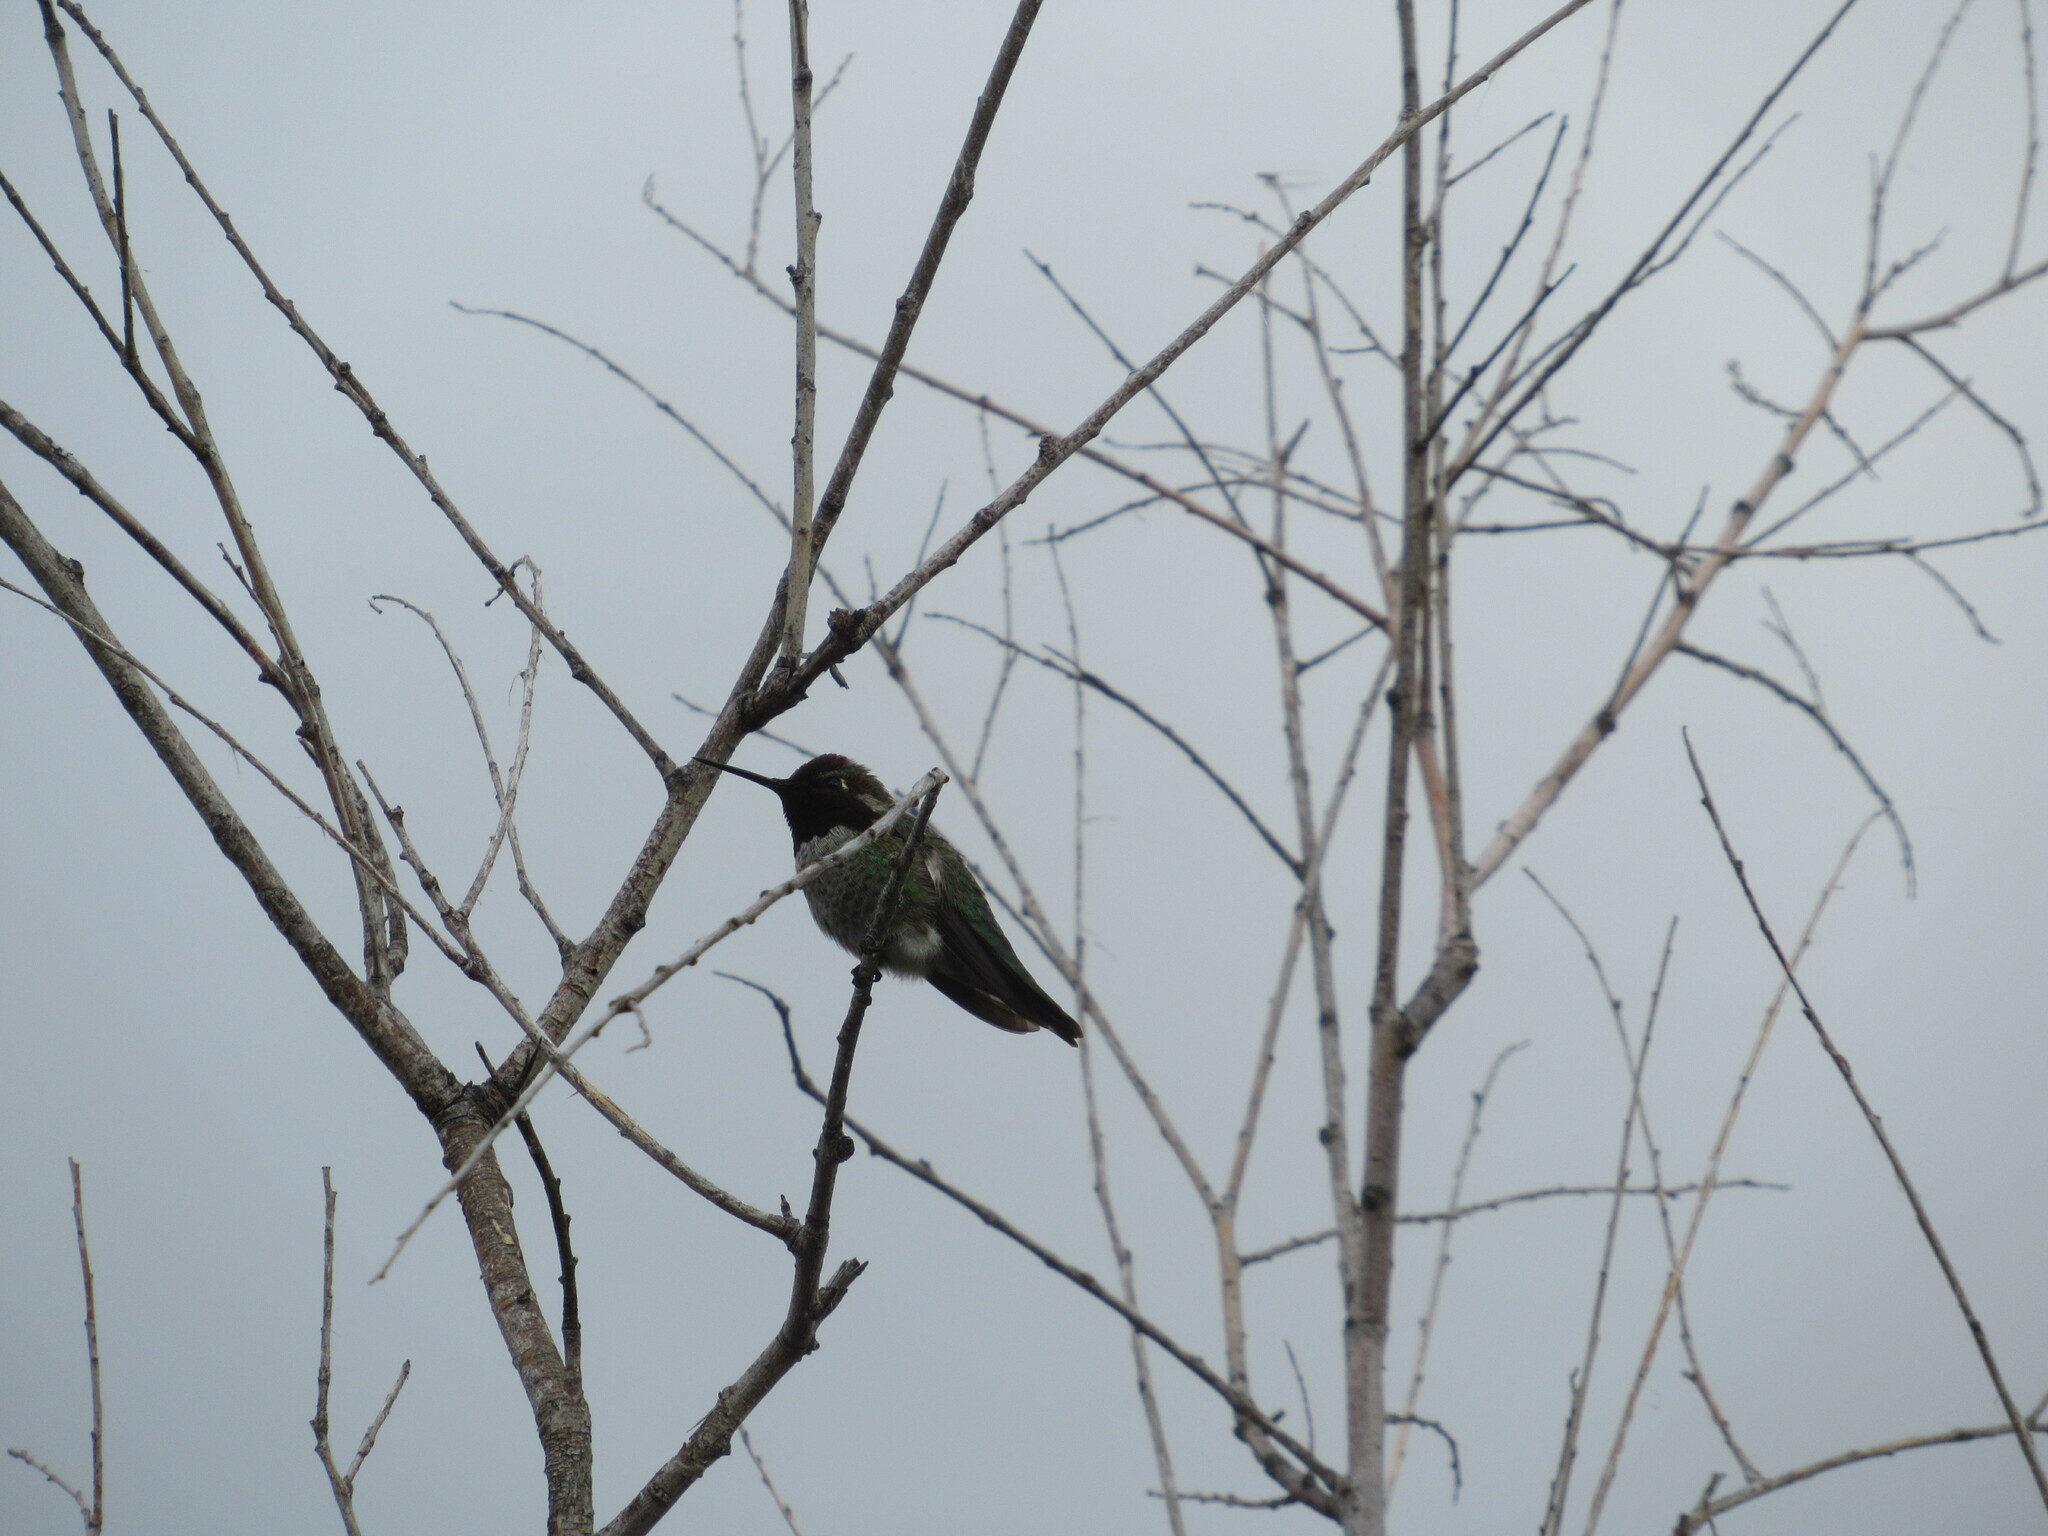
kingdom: Animalia
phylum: Chordata
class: Aves
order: Apodiformes
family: Trochilidae
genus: Calypte
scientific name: Calypte anna
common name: Anna's hummingbird
